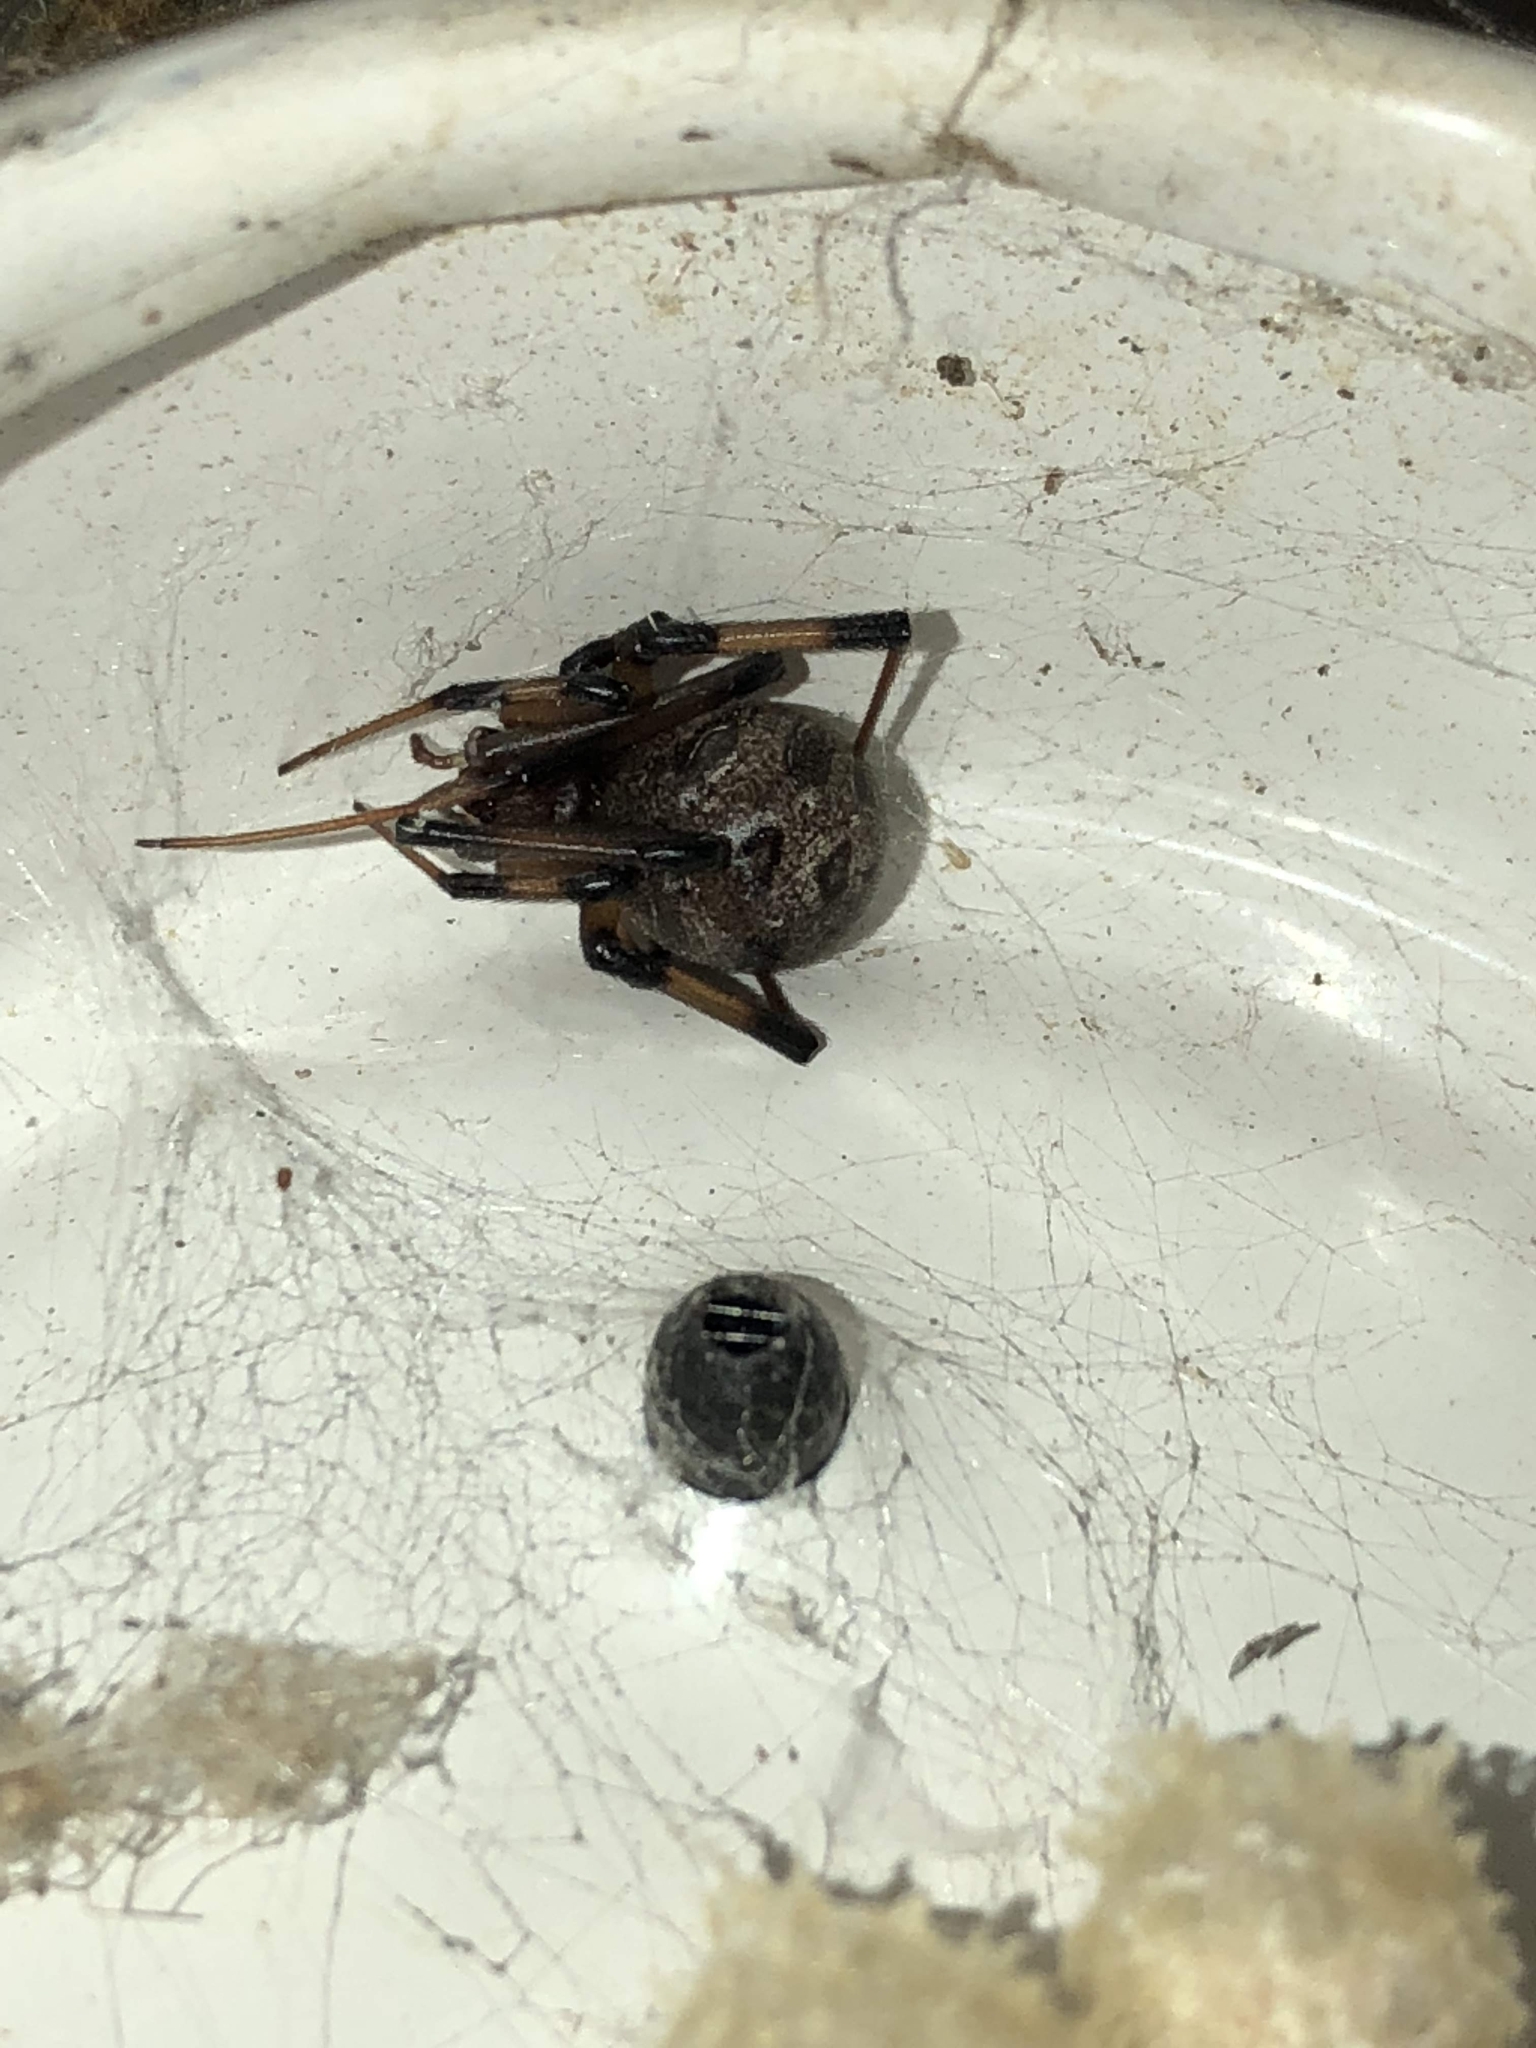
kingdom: Animalia
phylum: Arthropoda
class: Arachnida
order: Araneae
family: Theridiidae
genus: Latrodectus
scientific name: Latrodectus geometricus
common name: Brown widow spider
